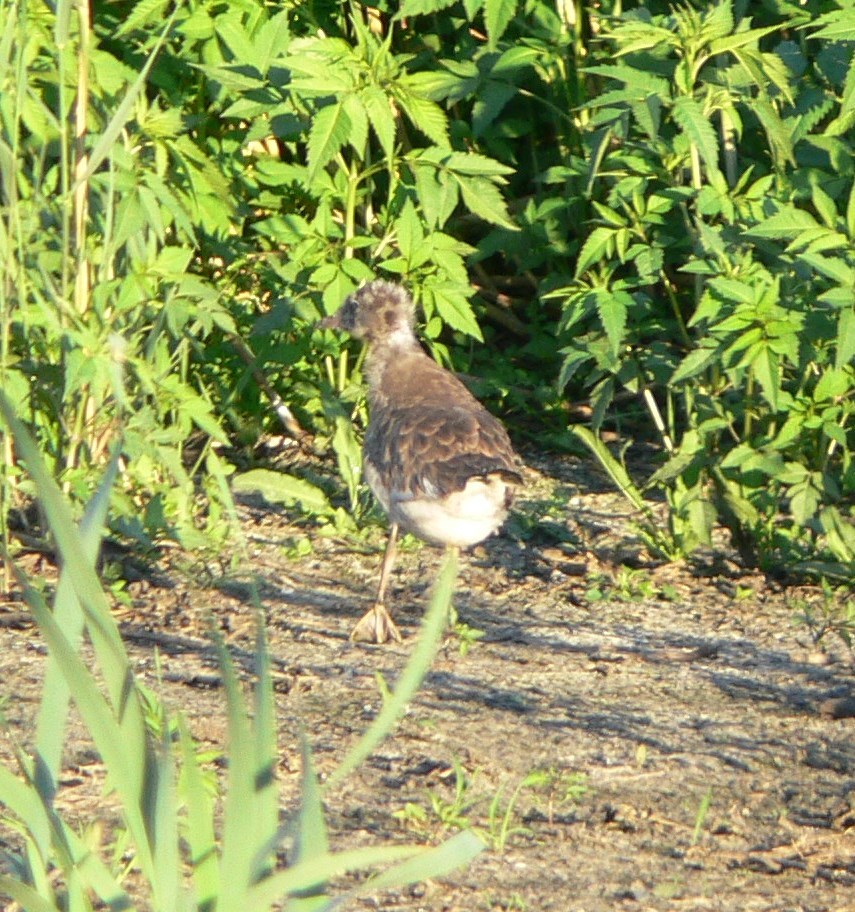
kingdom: Animalia
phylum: Chordata
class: Aves
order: Charadriiformes
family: Laridae
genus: Chroicocephalus
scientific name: Chroicocephalus ridibundus
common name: Black-headed gull
